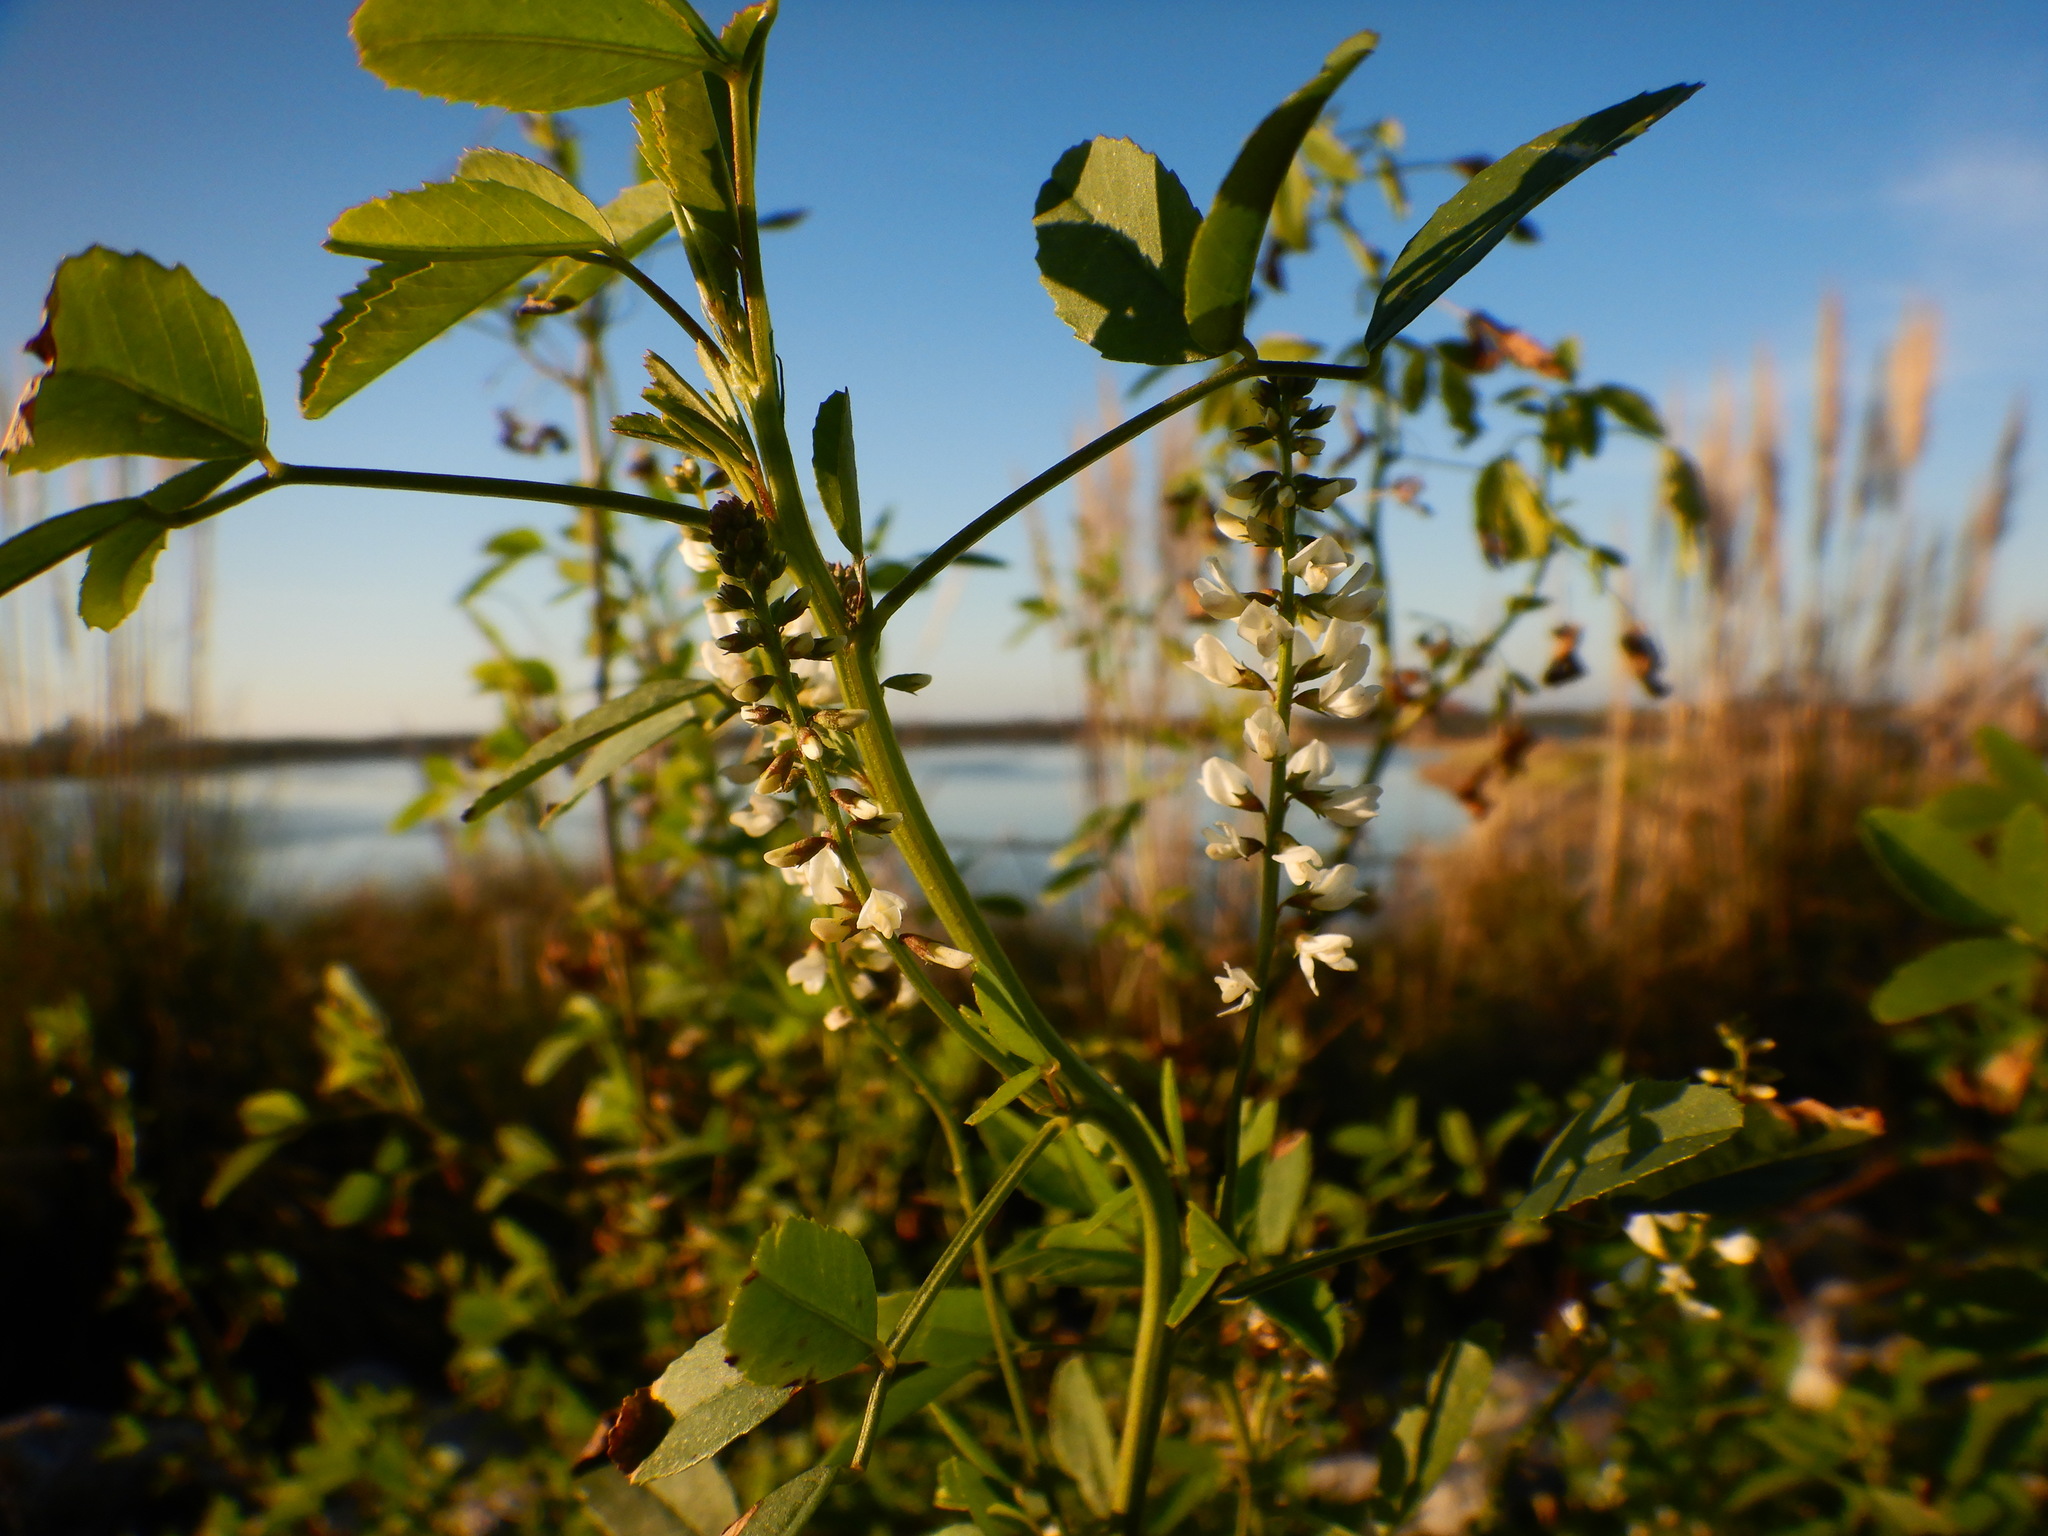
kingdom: Plantae
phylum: Tracheophyta
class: Magnoliopsida
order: Fabales
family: Fabaceae
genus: Melilotus
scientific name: Melilotus albus
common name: White melilot
